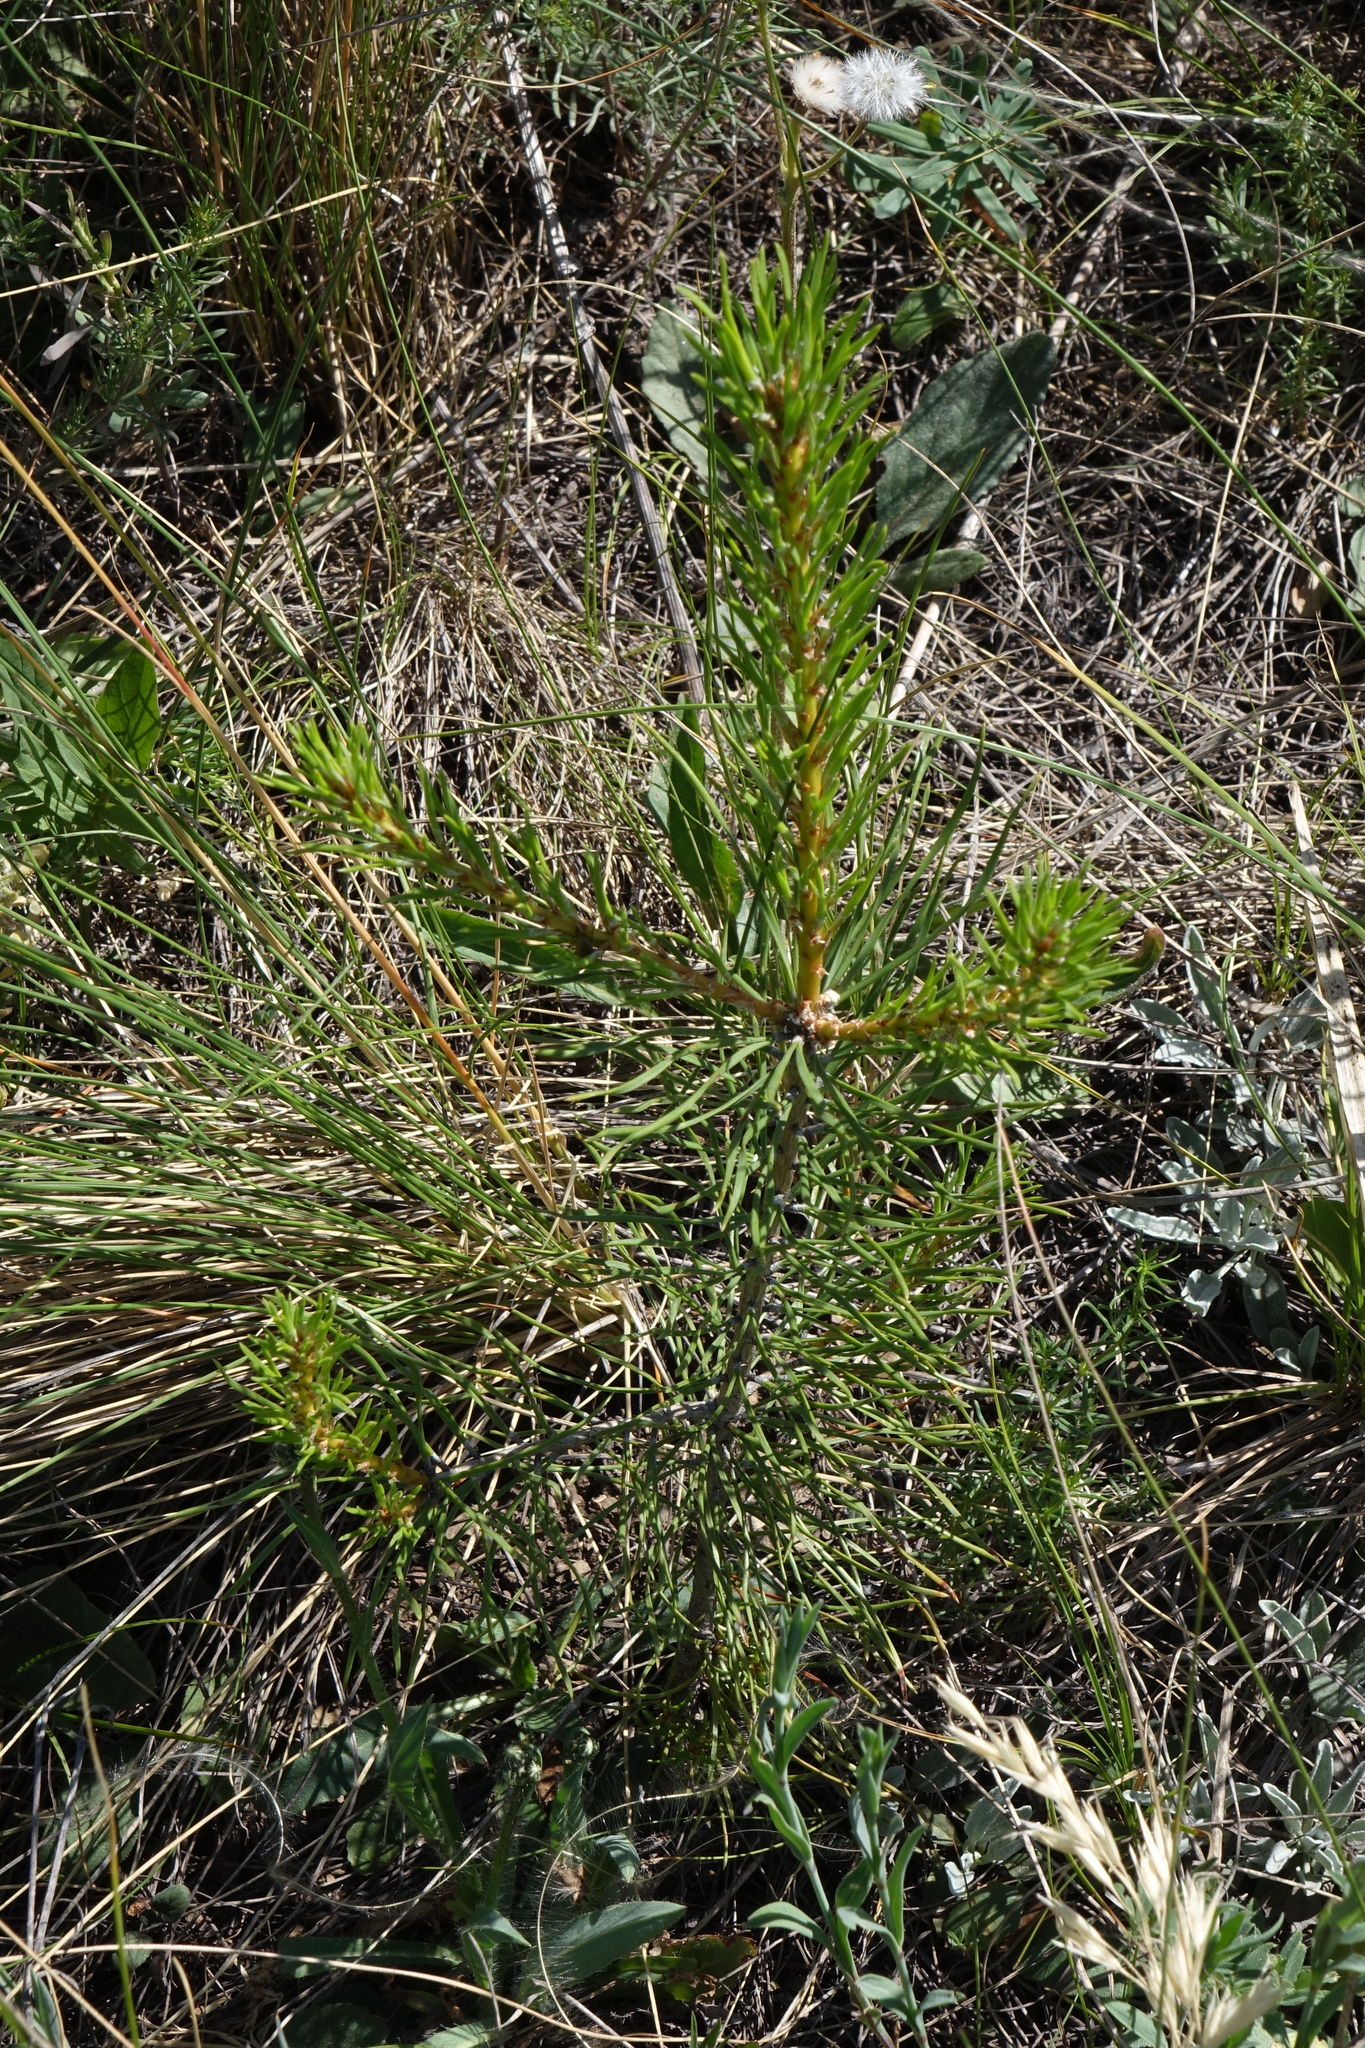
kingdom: Plantae
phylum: Tracheophyta
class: Pinopsida
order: Pinales
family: Pinaceae
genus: Pinus
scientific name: Pinus sylvestris
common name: Scots pine
